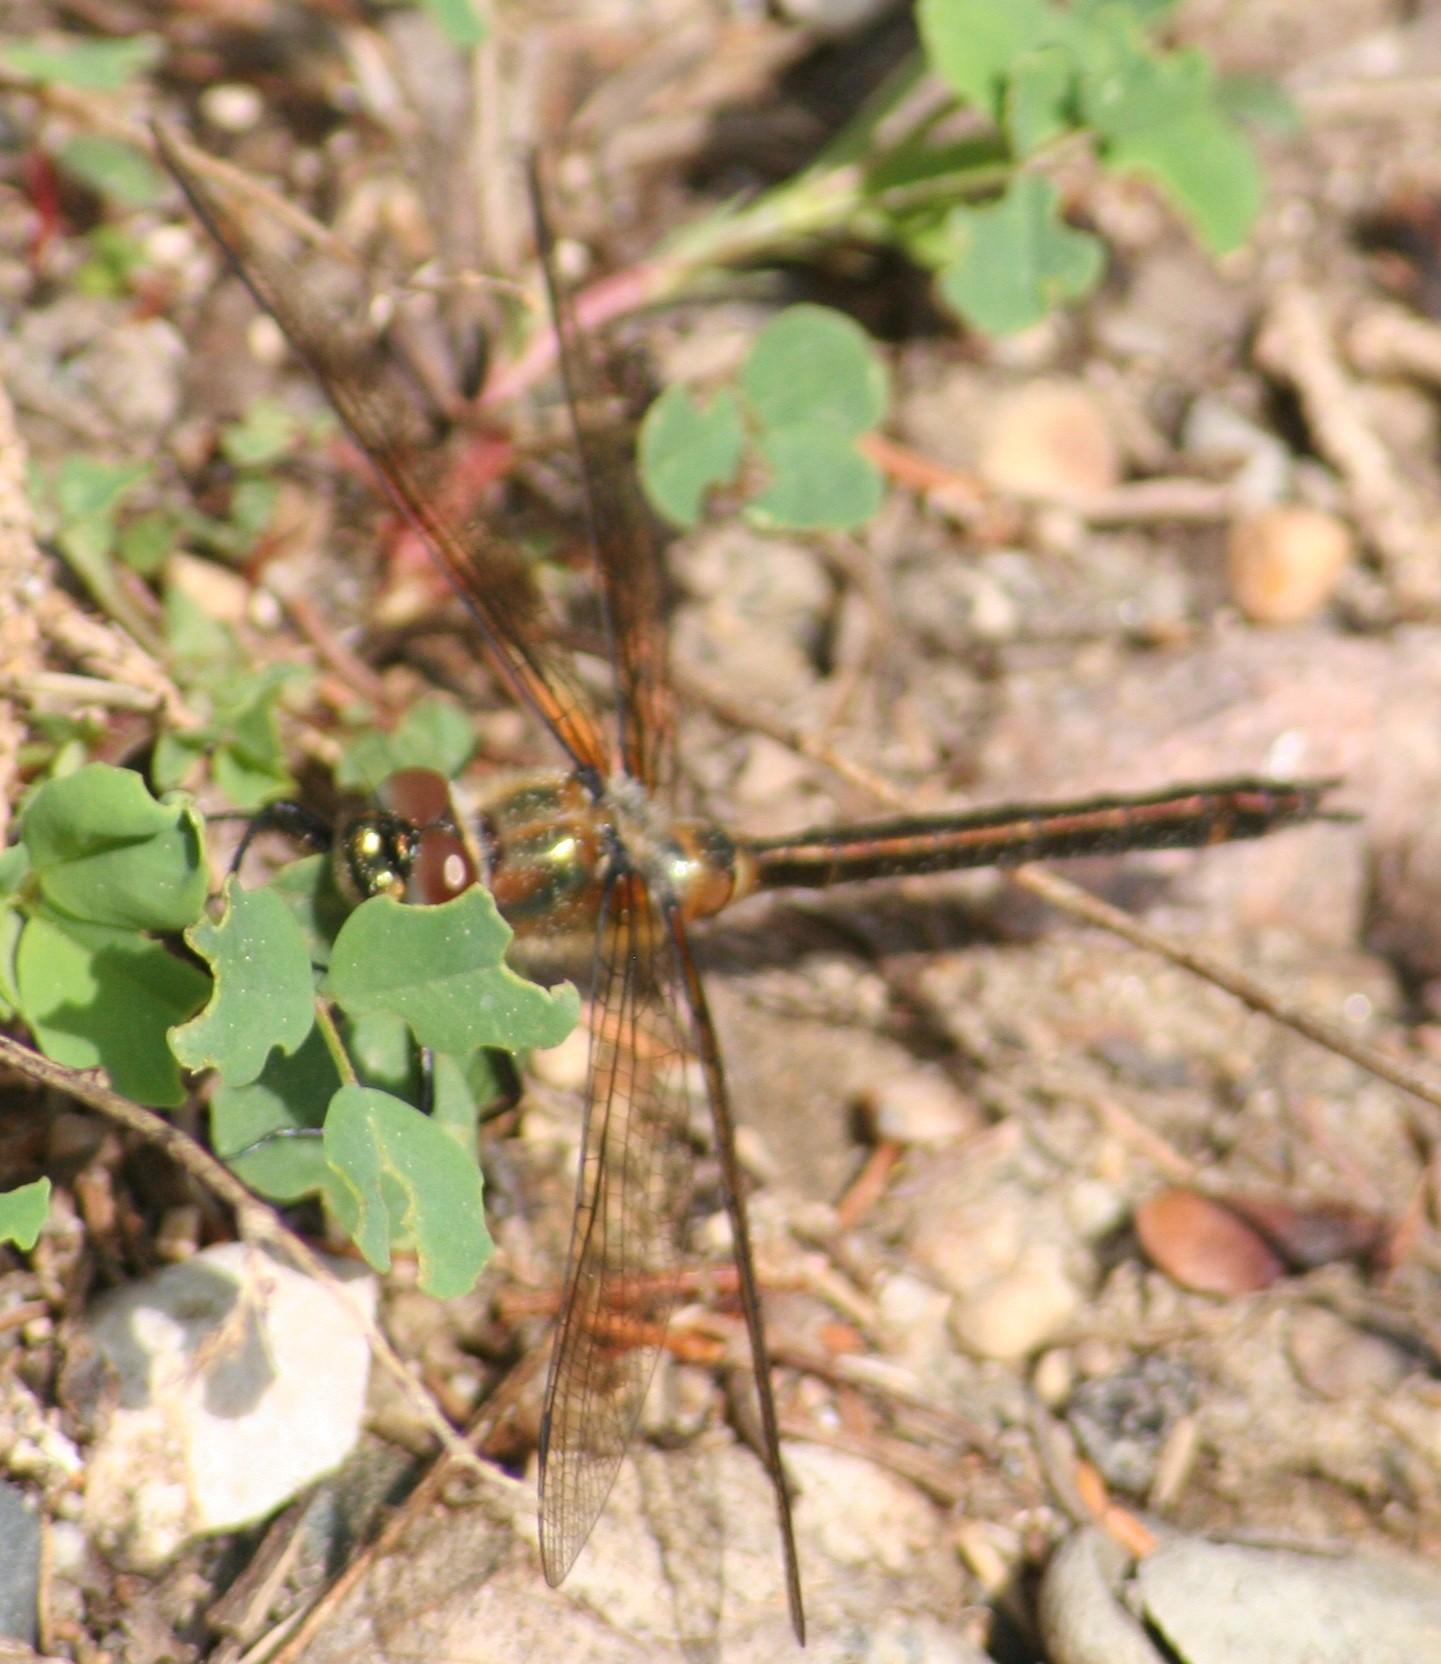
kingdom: Animalia
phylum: Arthropoda
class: Insecta
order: Odonata
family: Corduliidae
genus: Cordulia
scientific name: Cordulia shurtleffii
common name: American emerald
